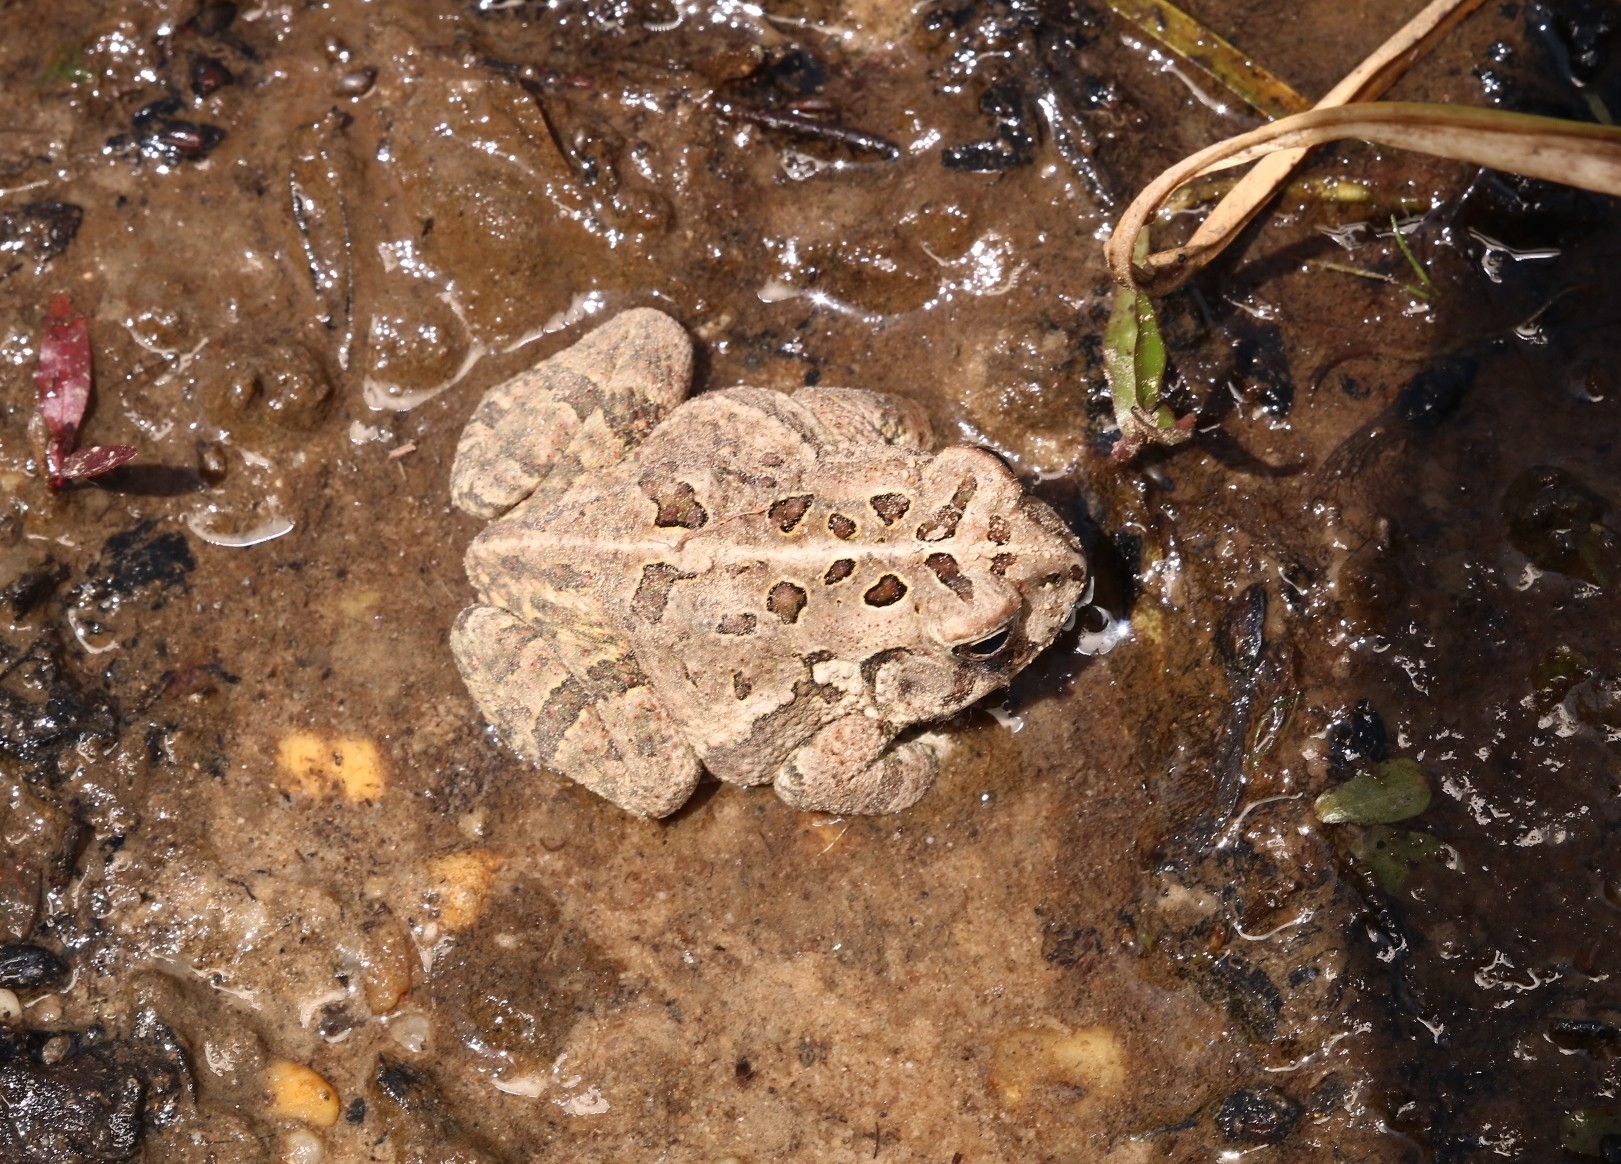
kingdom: Animalia
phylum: Chordata
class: Amphibia
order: Anura
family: Bufonidae
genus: Anaxyrus
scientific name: Anaxyrus fowleri
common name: Fowler's toad
